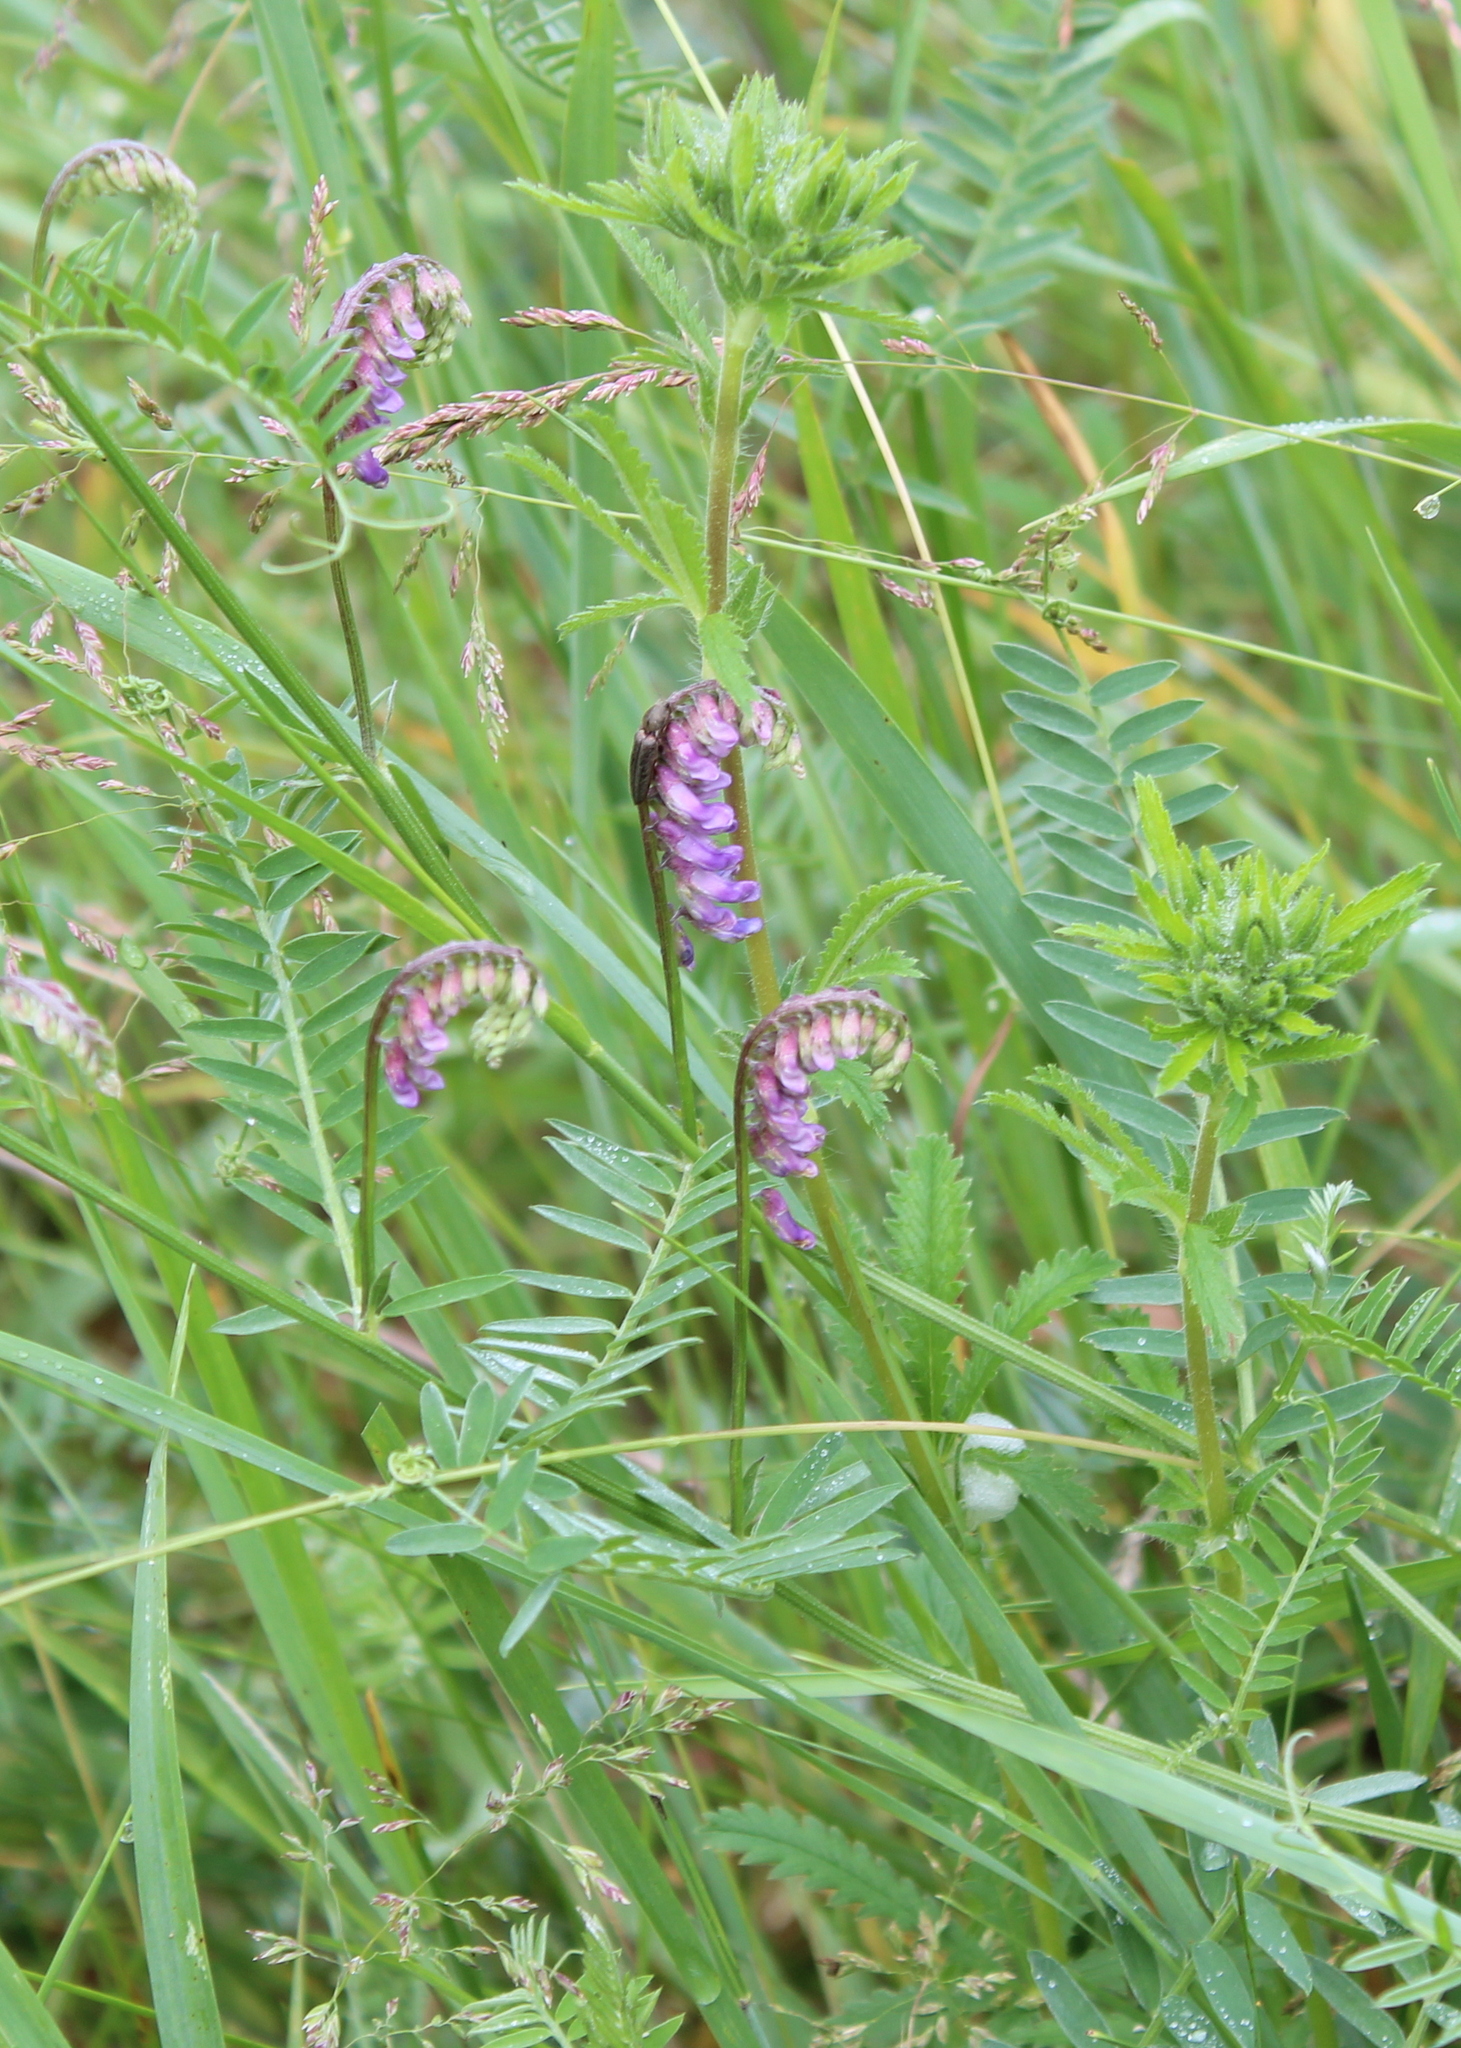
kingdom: Plantae
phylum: Tracheophyta
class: Magnoliopsida
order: Fabales
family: Fabaceae
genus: Vicia
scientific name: Vicia cracca
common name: Bird vetch
